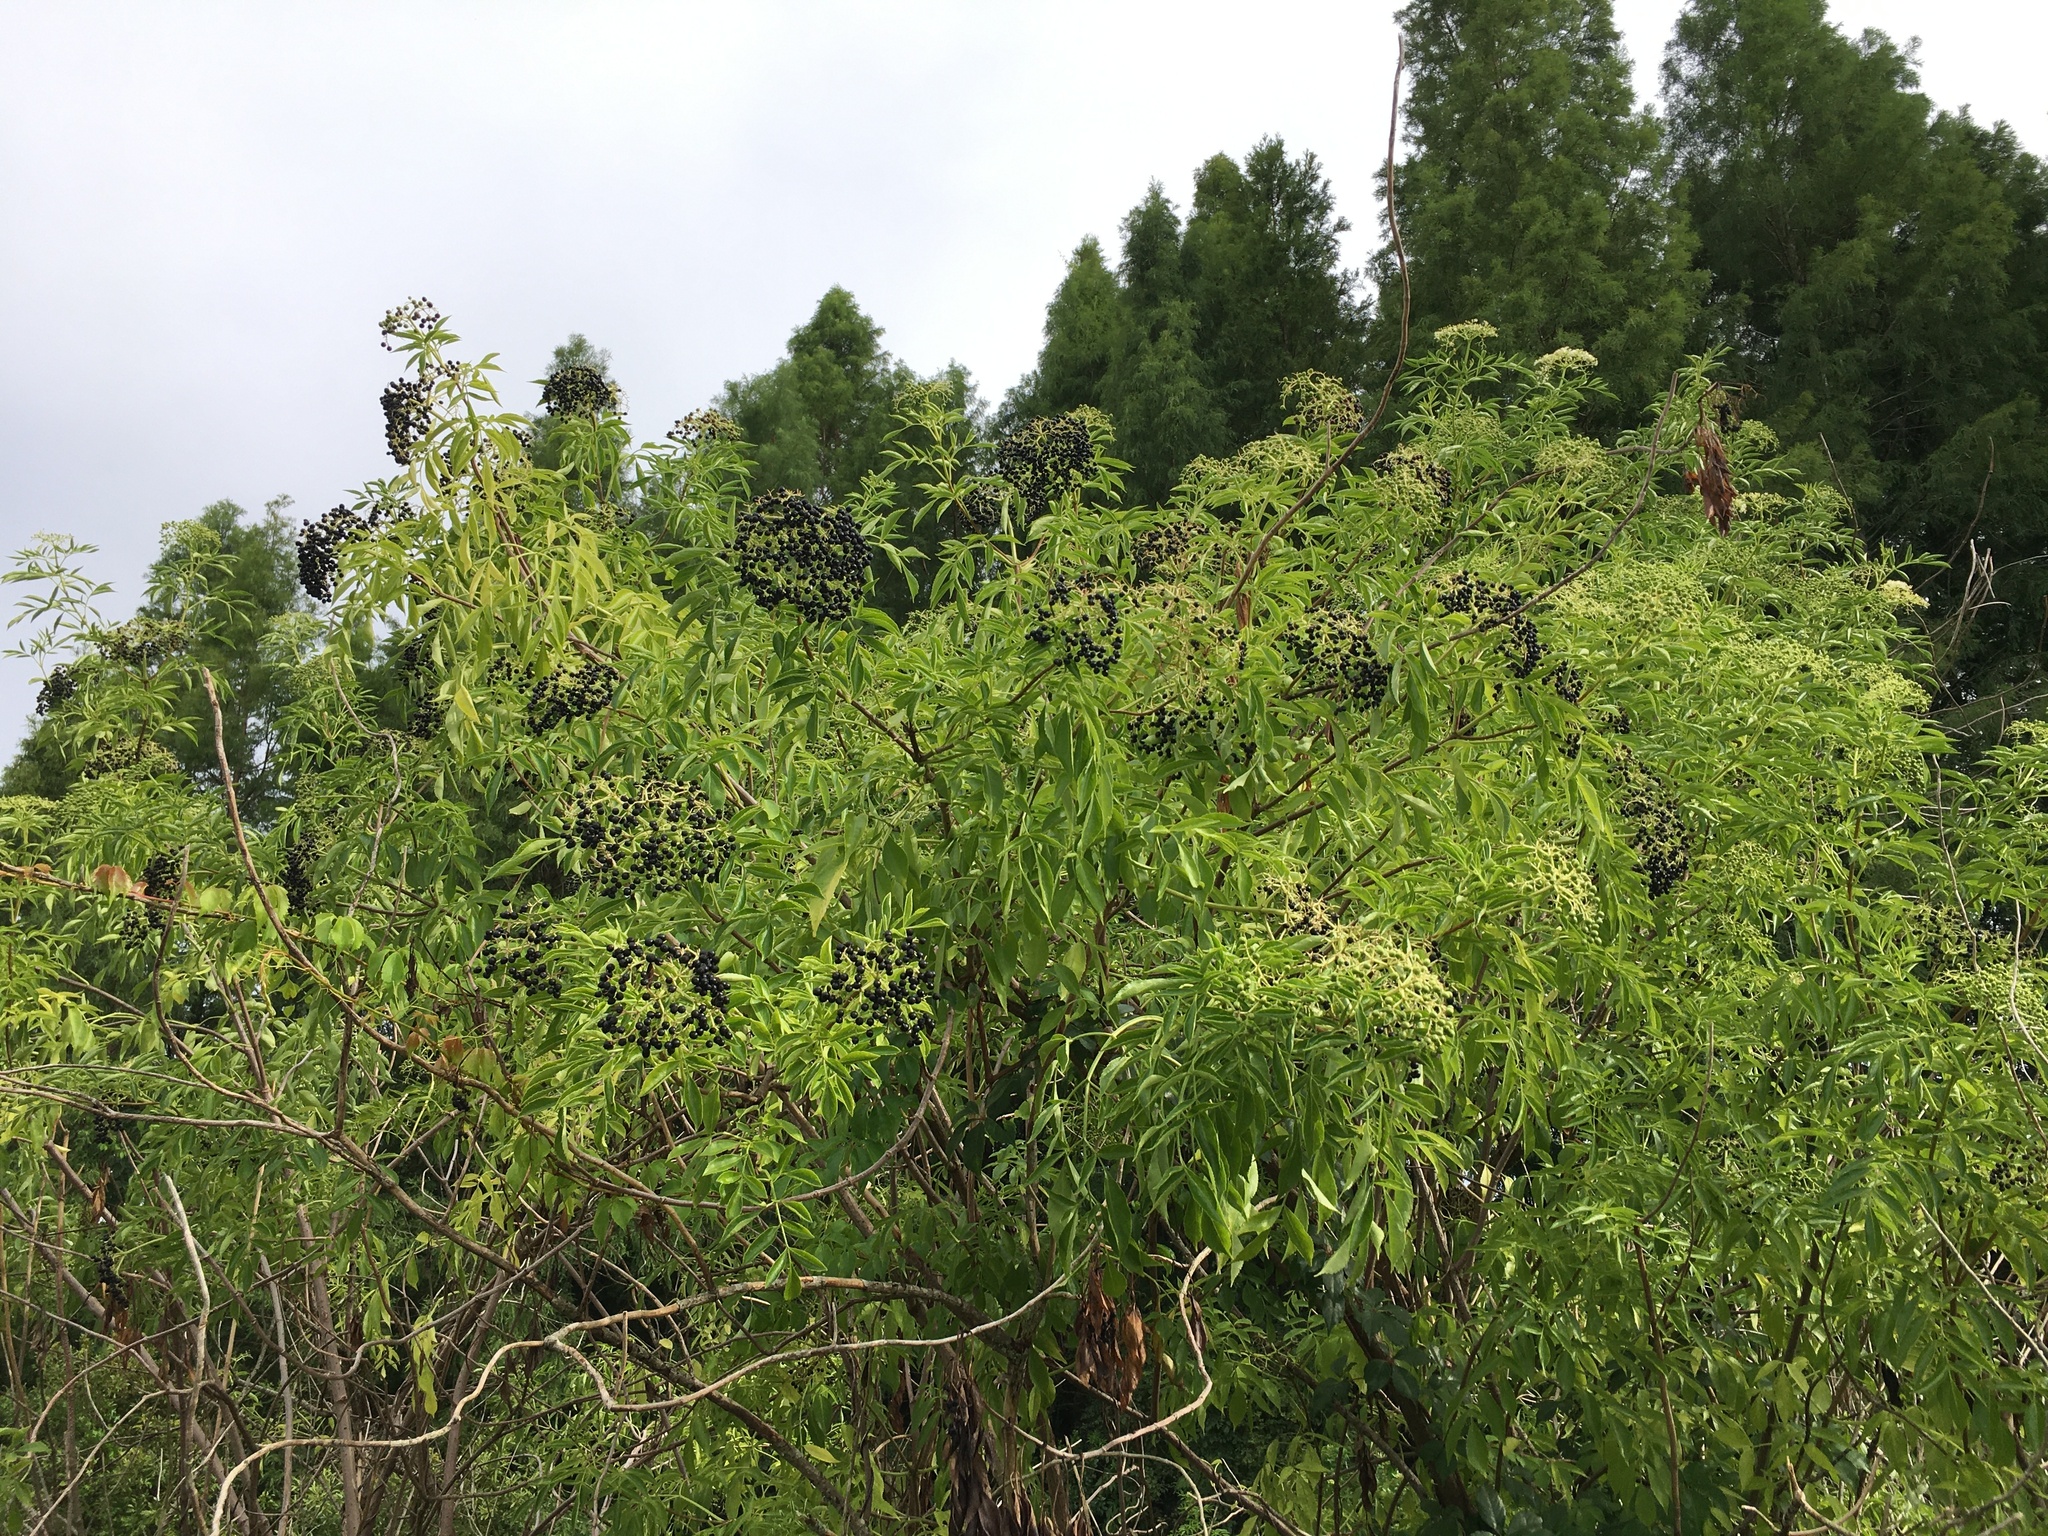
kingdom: Plantae
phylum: Tracheophyta
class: Magnoliopsida
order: Dipsacales
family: Viburnaceae
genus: Sambucus
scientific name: Sambucus canadensis
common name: American elder
